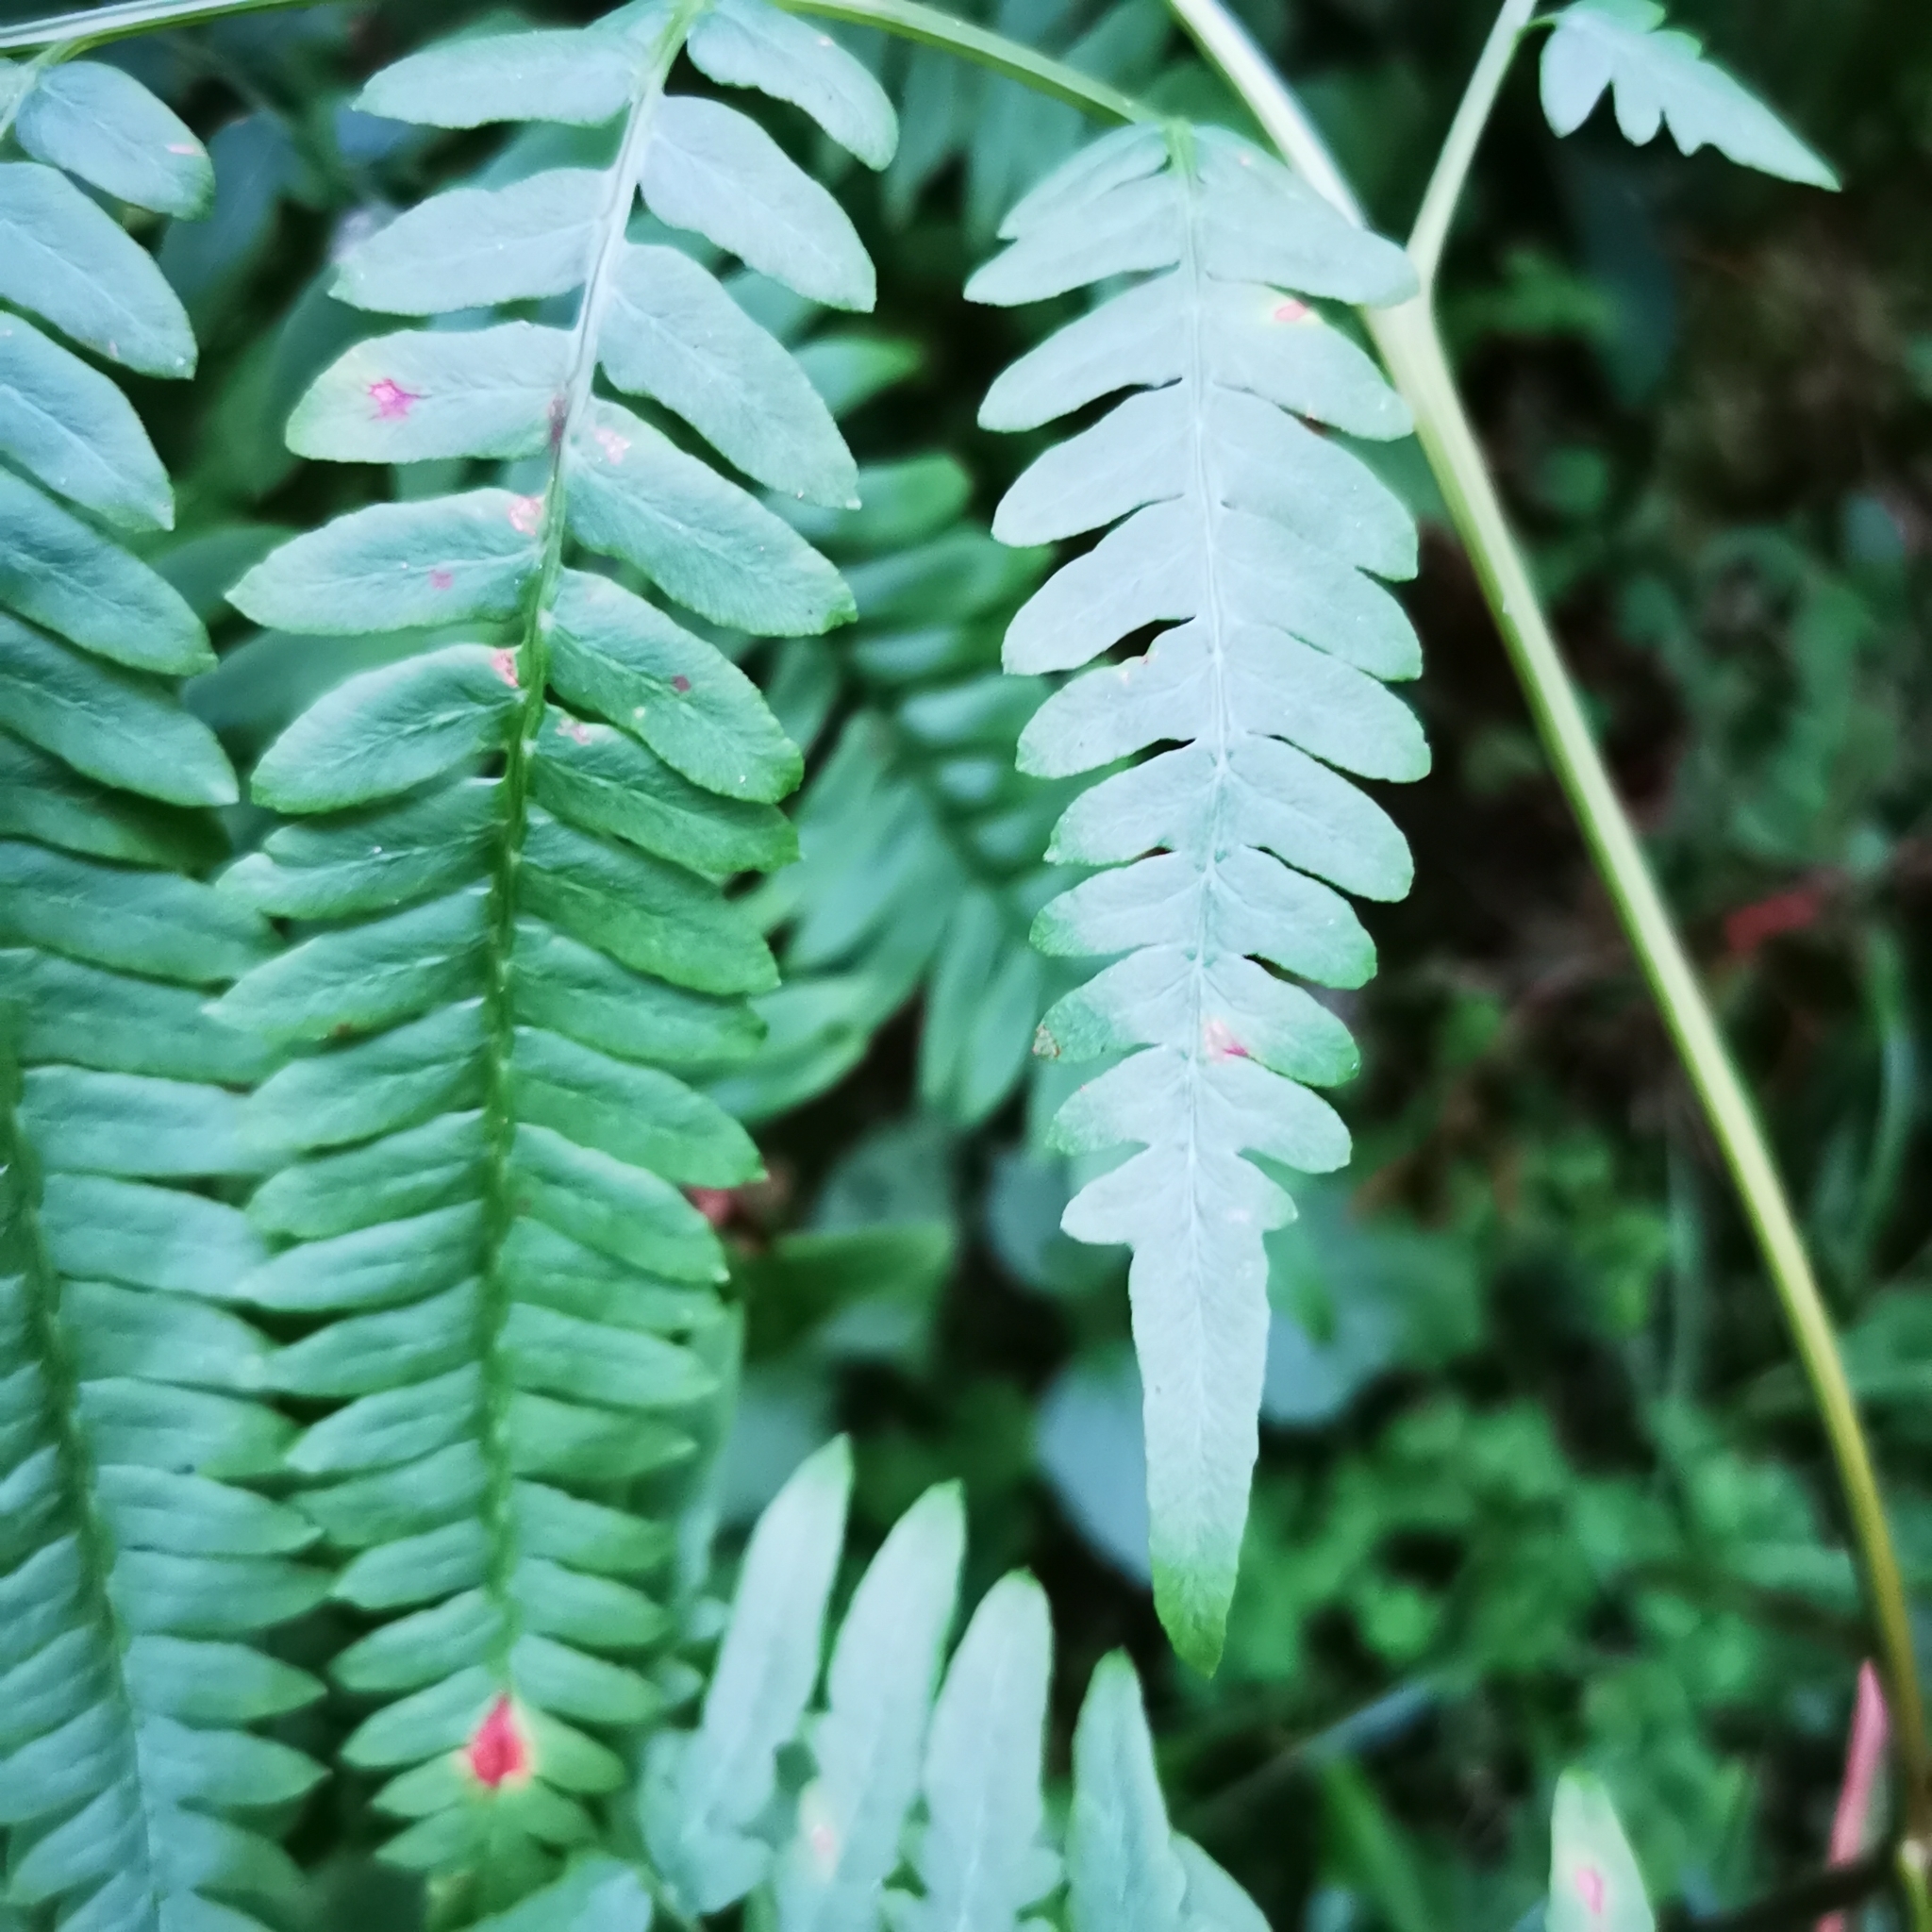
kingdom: Plantae
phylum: Tracheophyta
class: Polypodiopsida
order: Polypodiales
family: Dennstaedtiaceae
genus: Pteridium
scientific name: Pteridium aquilinum
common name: Bracken
